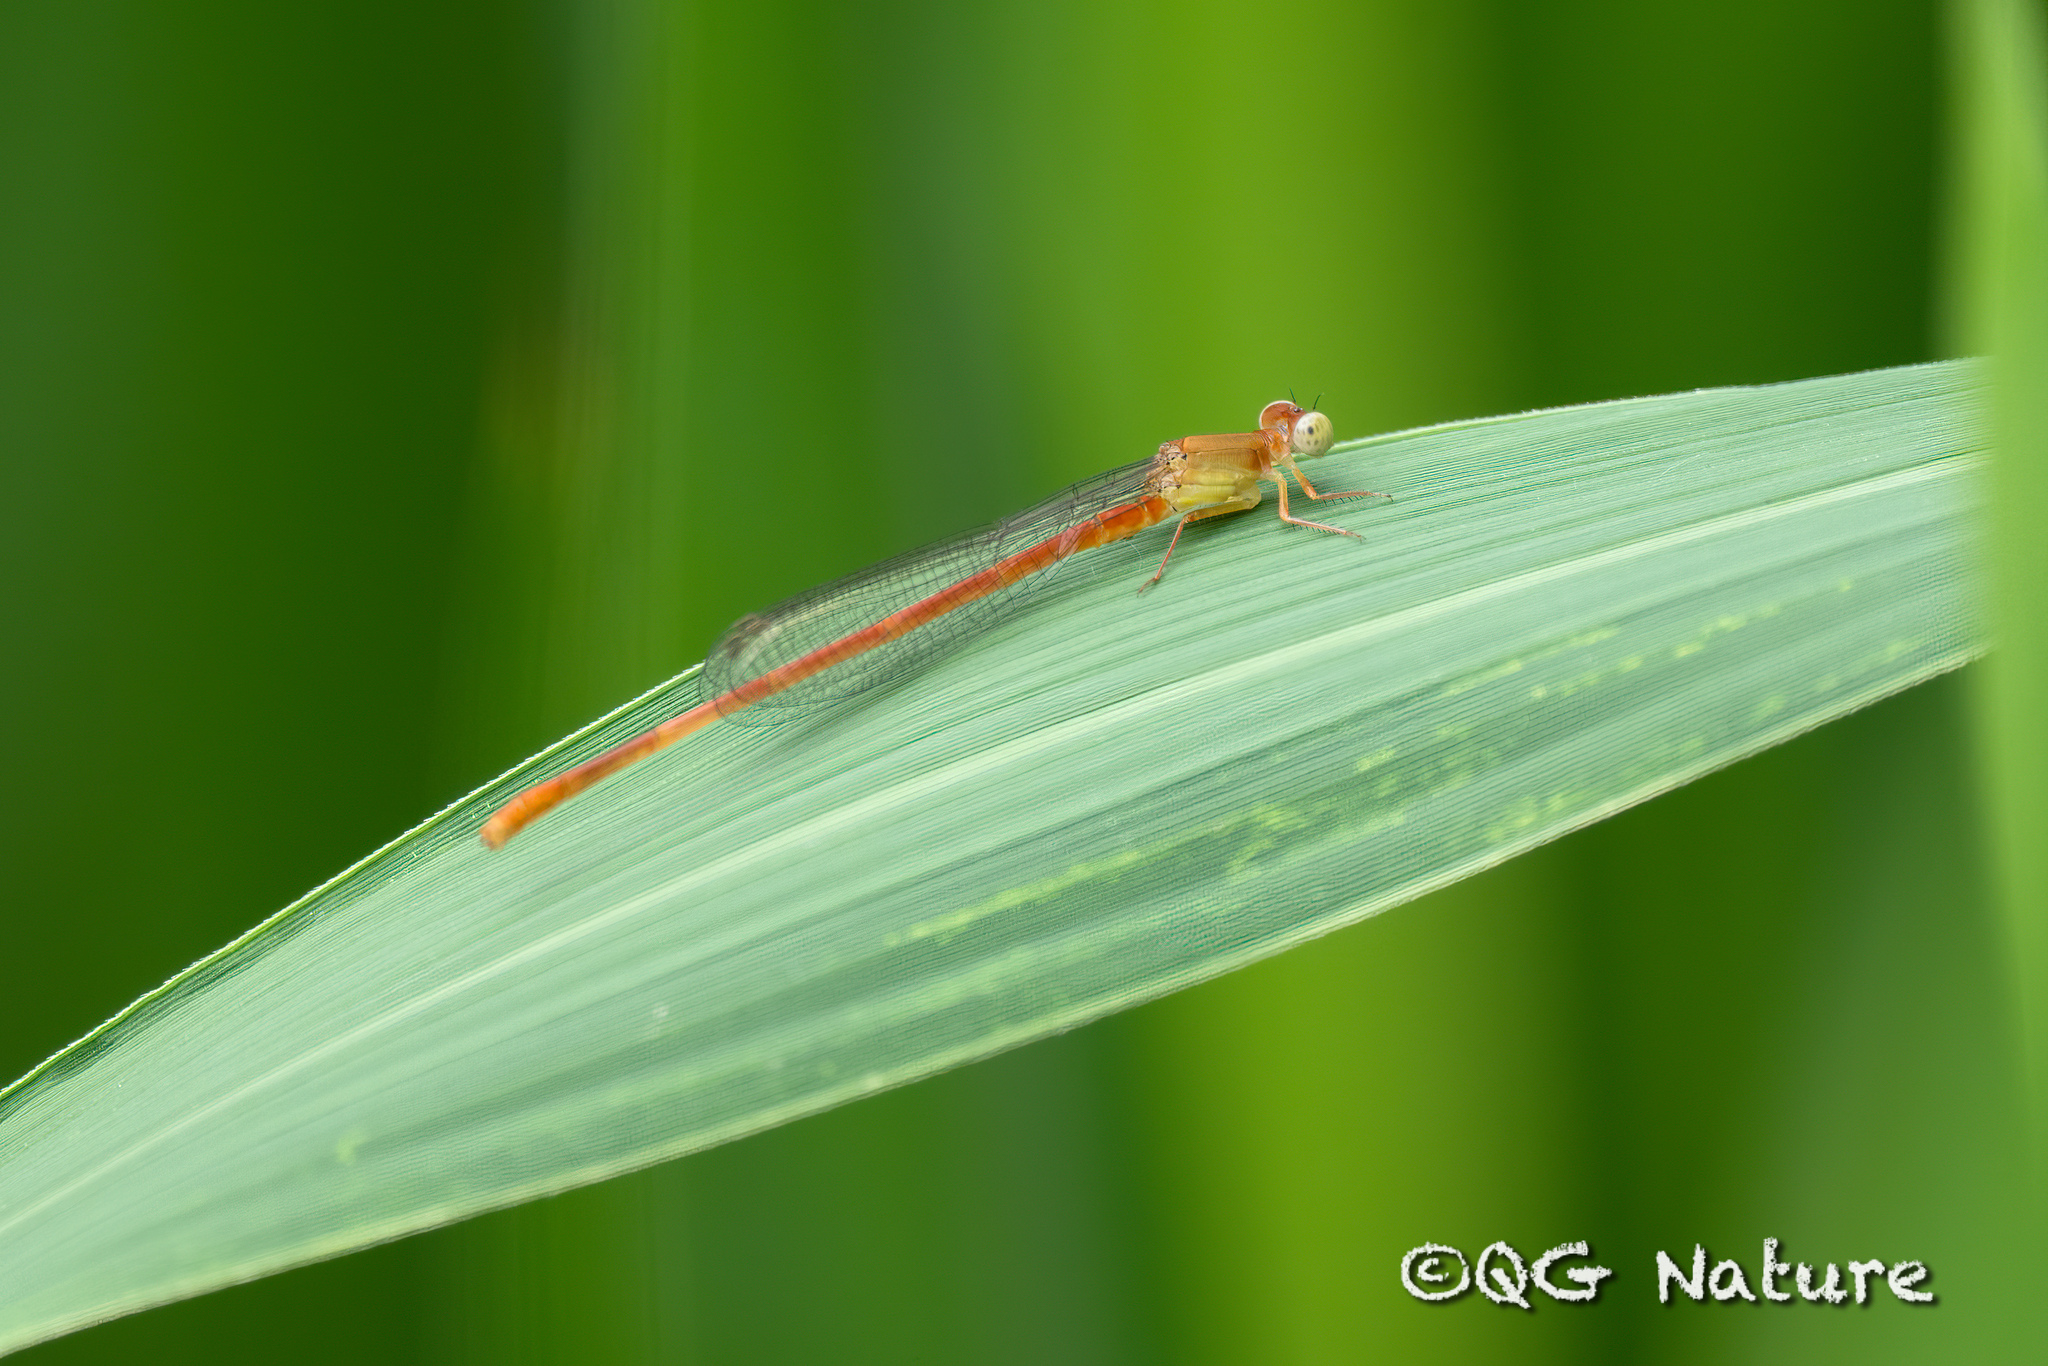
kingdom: Animalia
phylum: Arthropoda
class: Insecta
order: Odonata
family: Coenagrionidae
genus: Ceriagrion
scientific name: Ceriagrion auranticum
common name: Orange-tailed sprite
